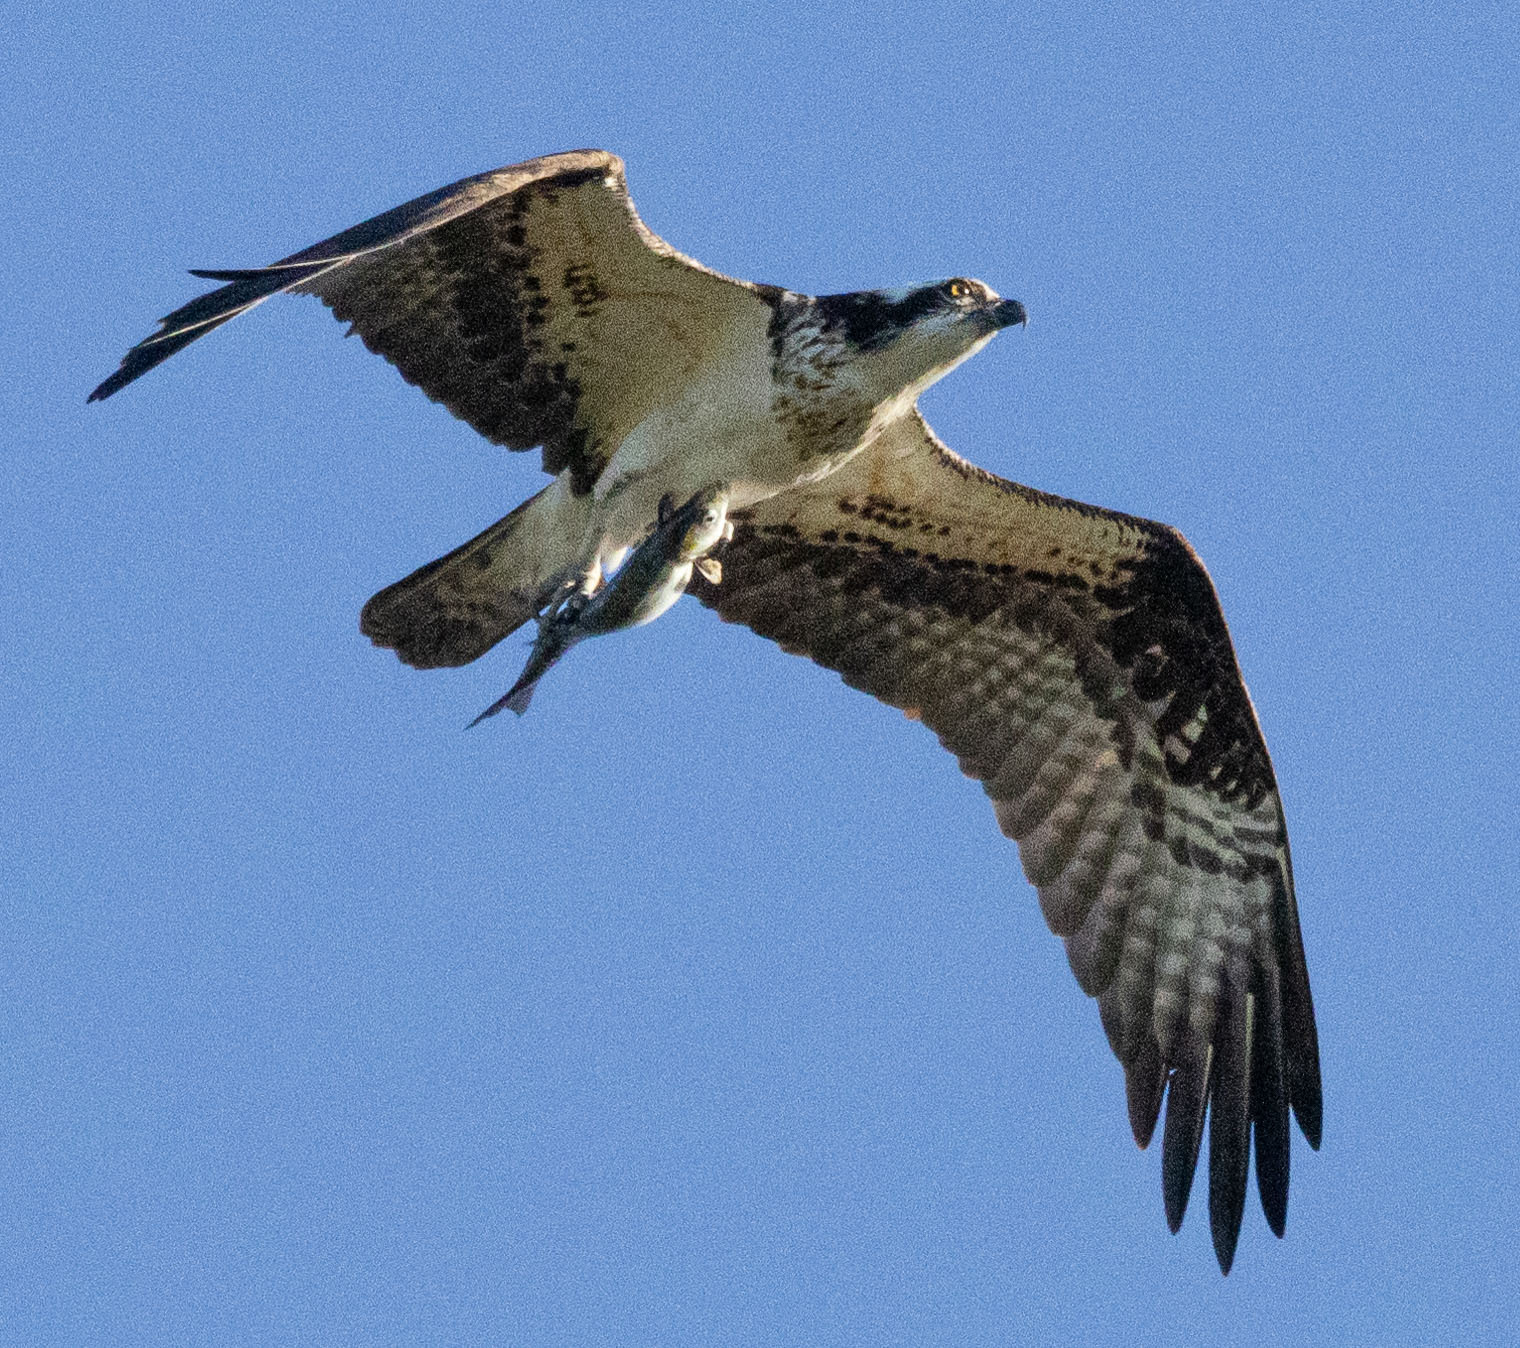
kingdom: Animalia
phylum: Chordata
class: Aves
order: Accipitriformes
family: Pandionidae
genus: Pandion
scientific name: Pandion haliaetus
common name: Osprey
